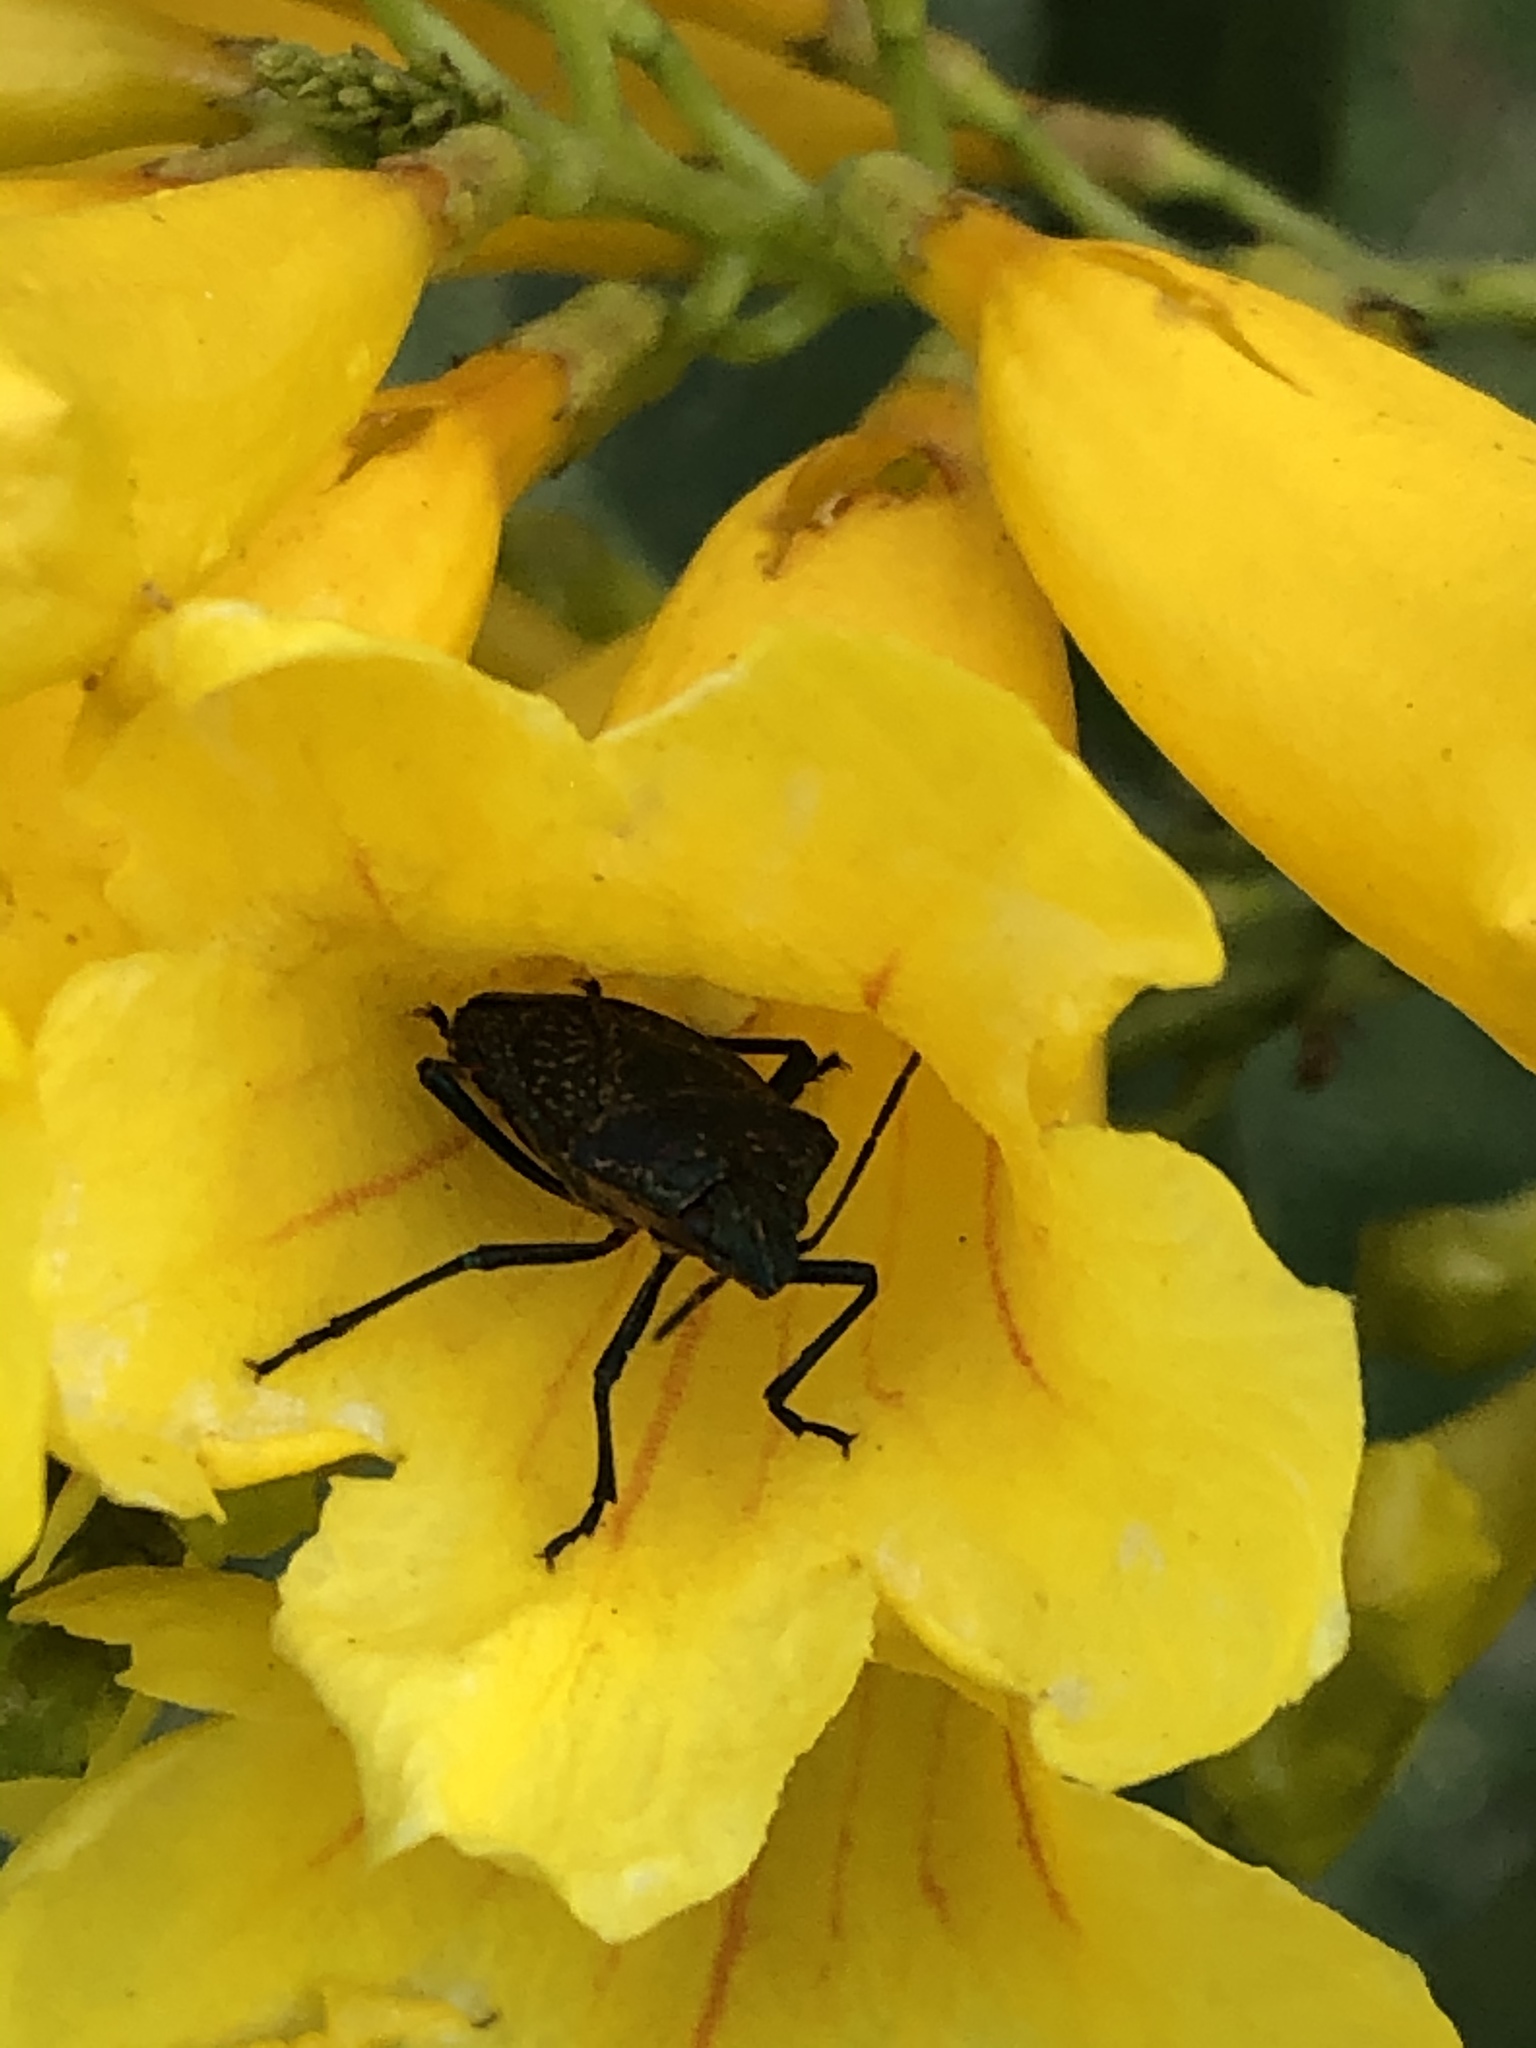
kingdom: Animalia
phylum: Arthropoda
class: Insecta
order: Hemiptera
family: Pentatomidae
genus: Pellaea
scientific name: Pellaea stictica
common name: Stink bug
